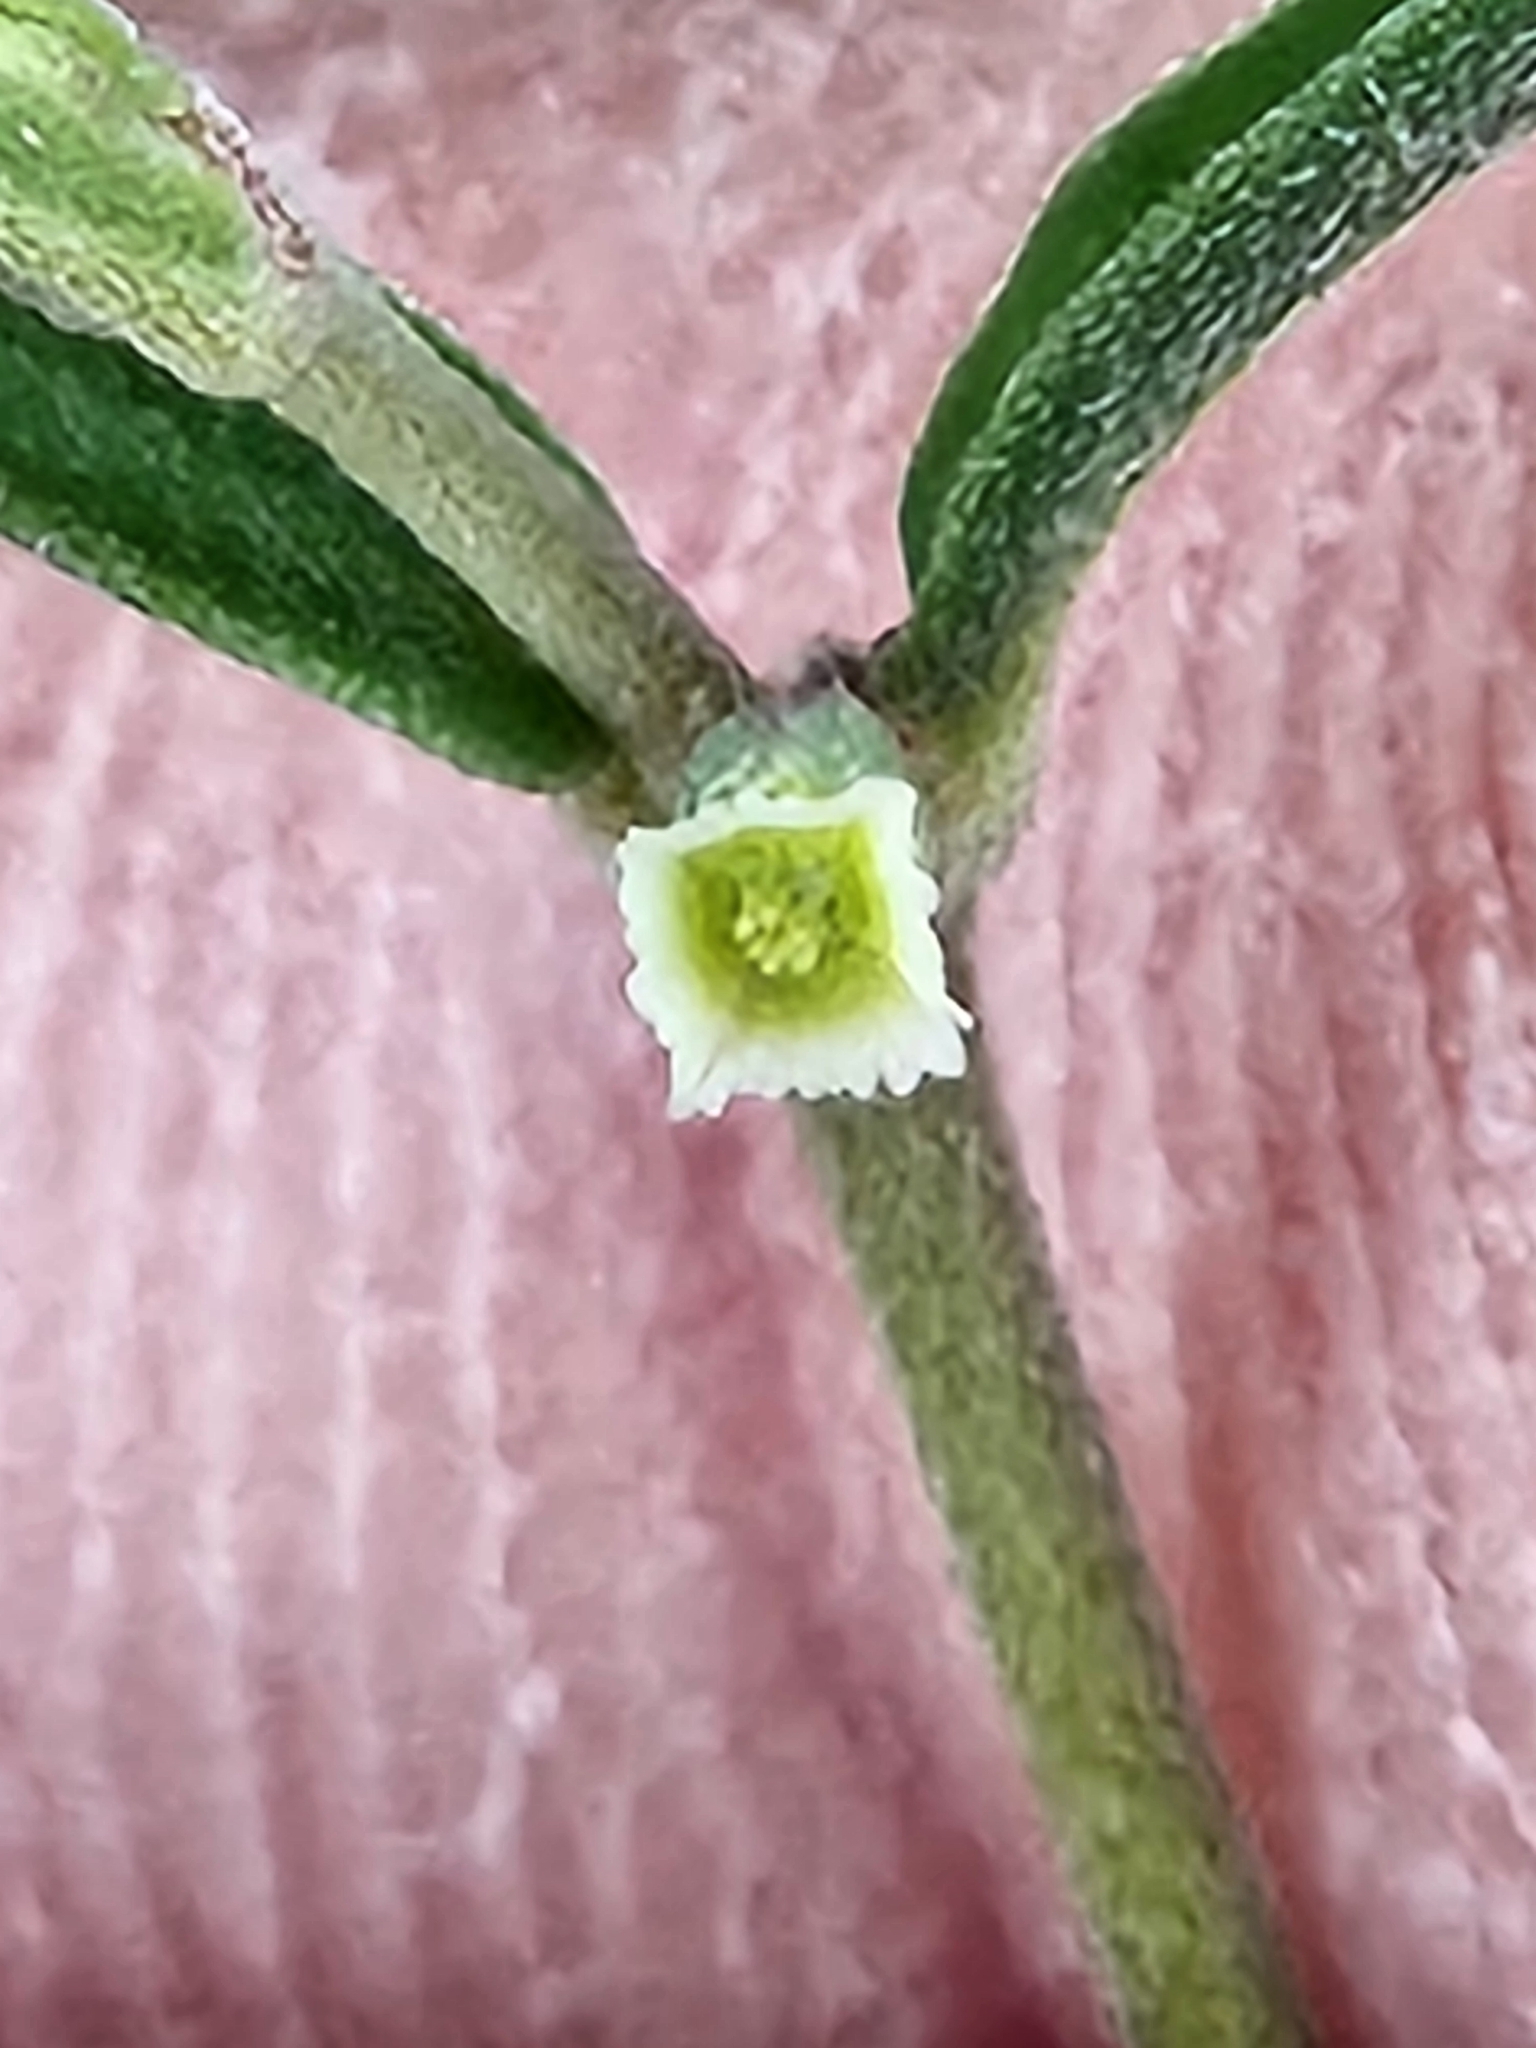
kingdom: Plantae
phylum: Tracheophyta
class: Magnoliopsida
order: Malpighiales
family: Euphorbiaceae
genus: Euphorbia
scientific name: Euphorbia angusta
